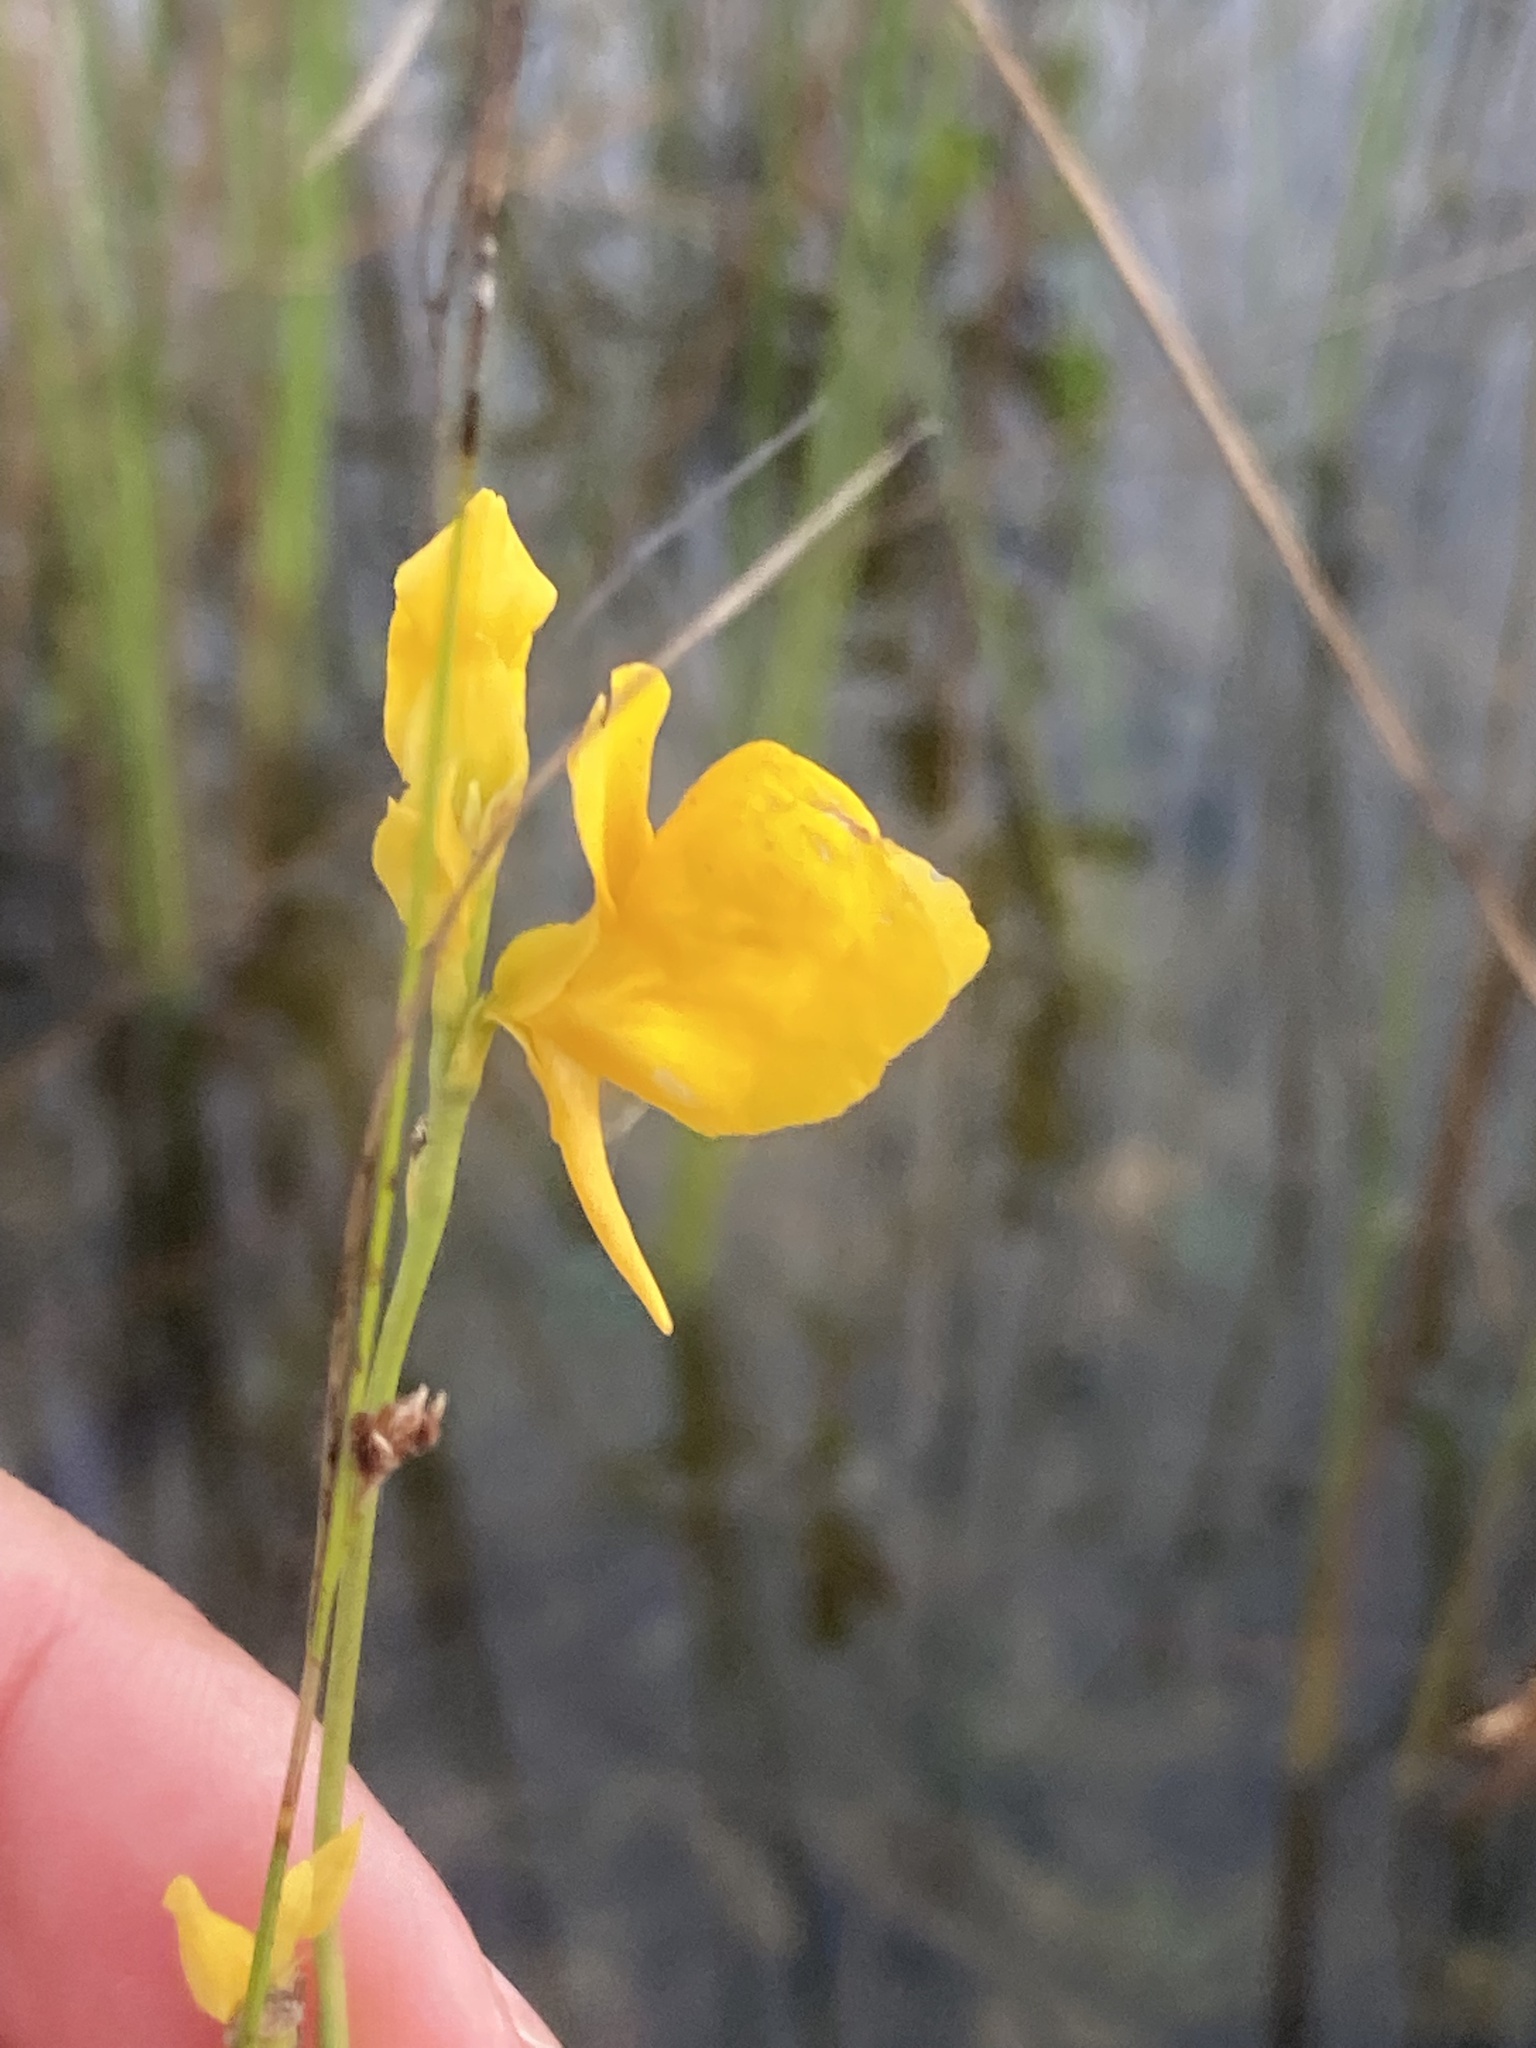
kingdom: Plantae
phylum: Tracheophyta
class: Magnoliopsida
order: Lamiales
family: Lentibulariaceae
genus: Utricularia
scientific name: Utricularia cornuta
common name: Horned bladderwort
